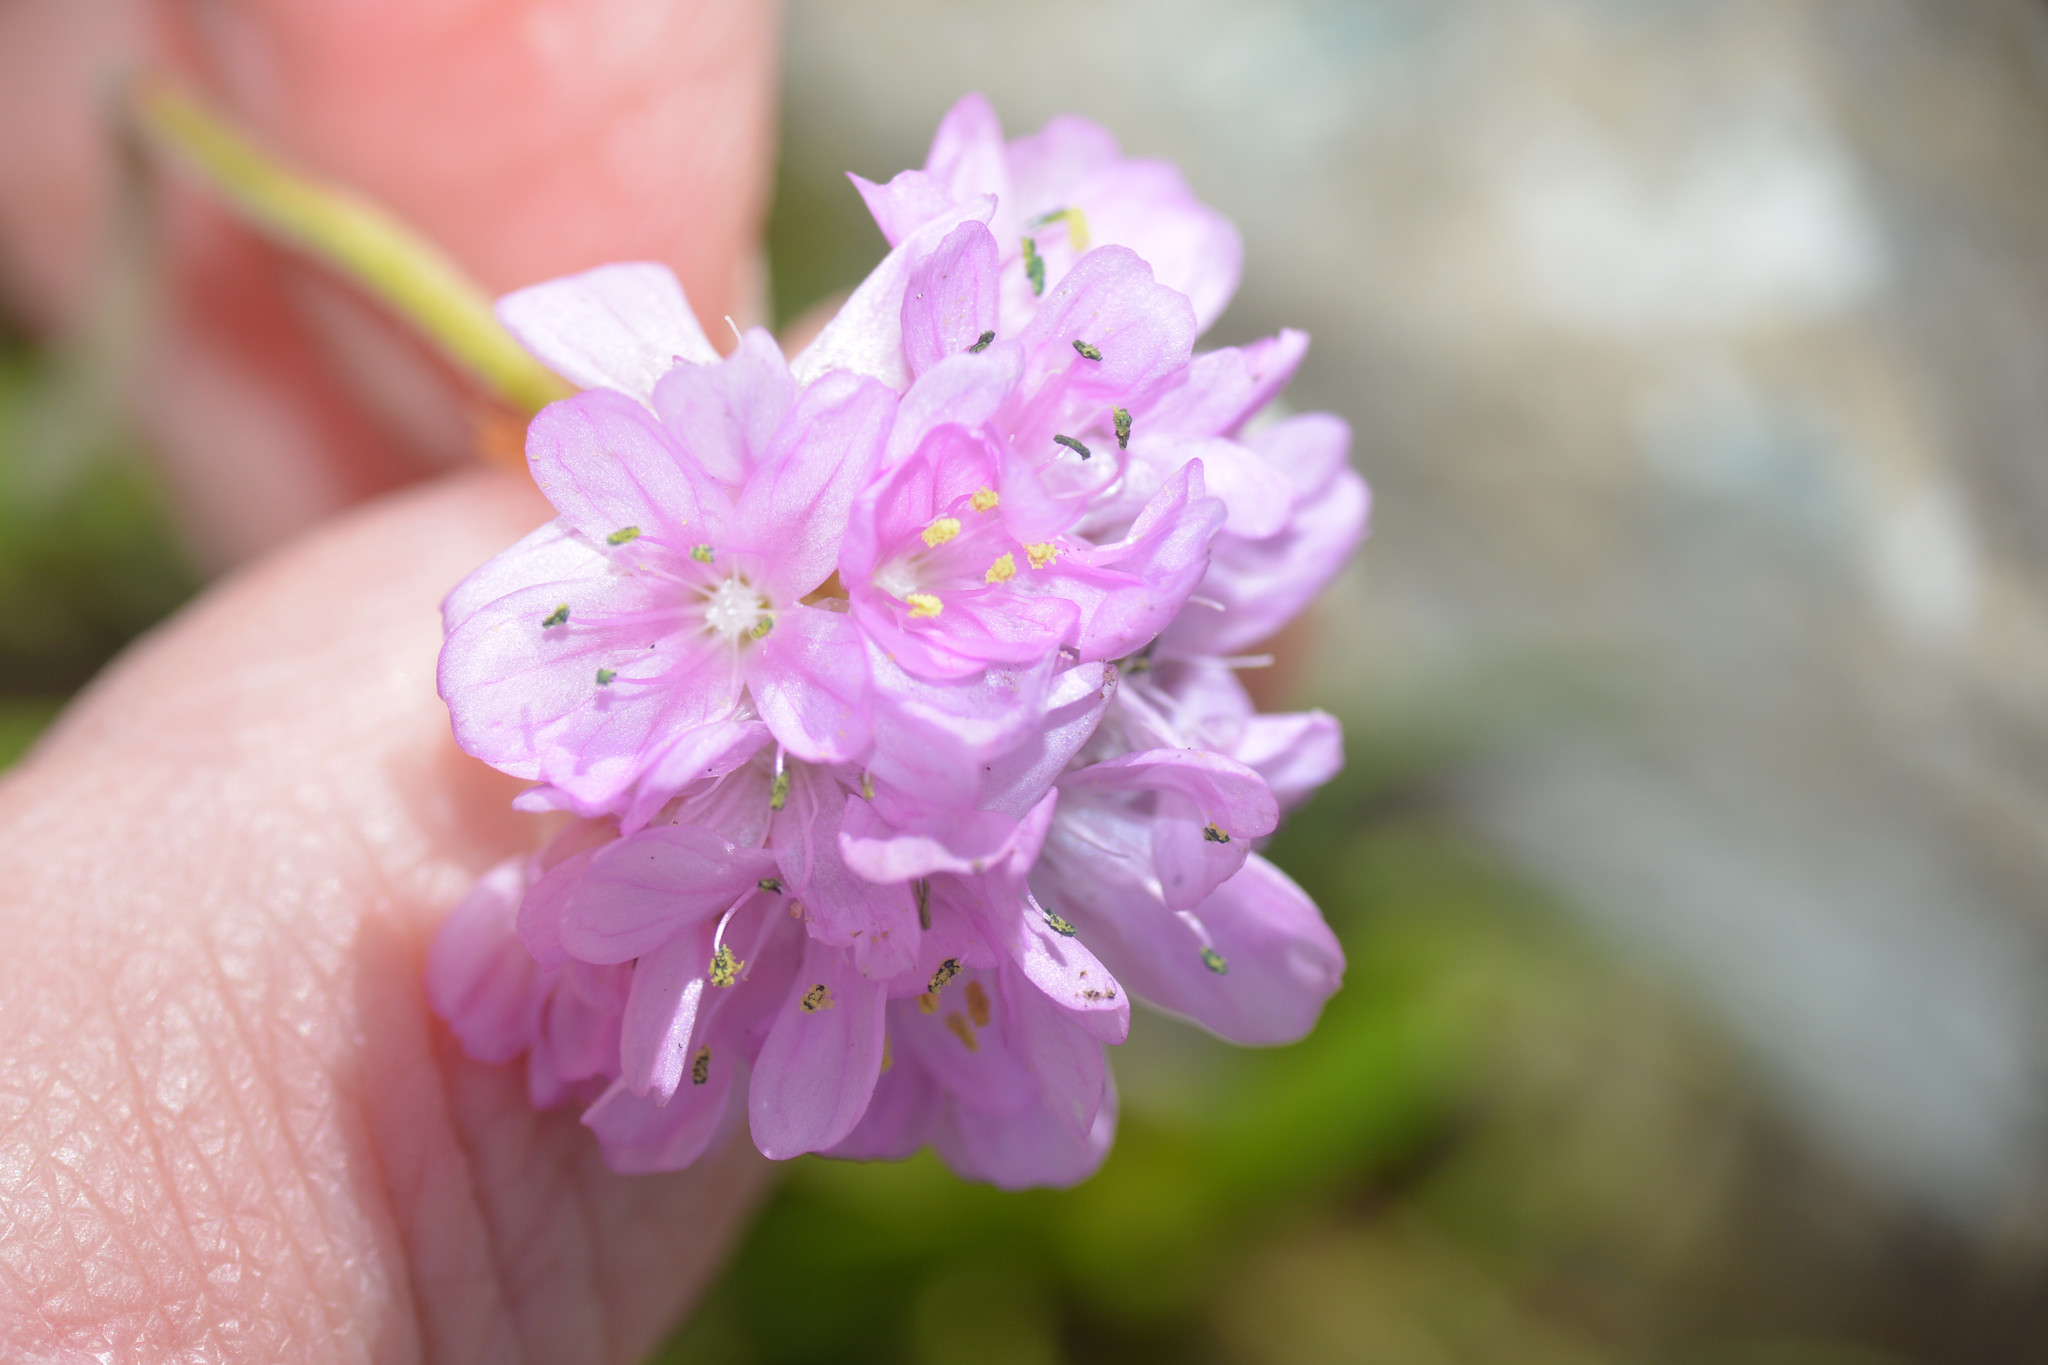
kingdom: Plantae
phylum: Tracheophyta
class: Magnoliopsida
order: Caryophyllales
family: Plumbaginaceae
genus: Armeria
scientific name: Armeria maritima
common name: Thrift
